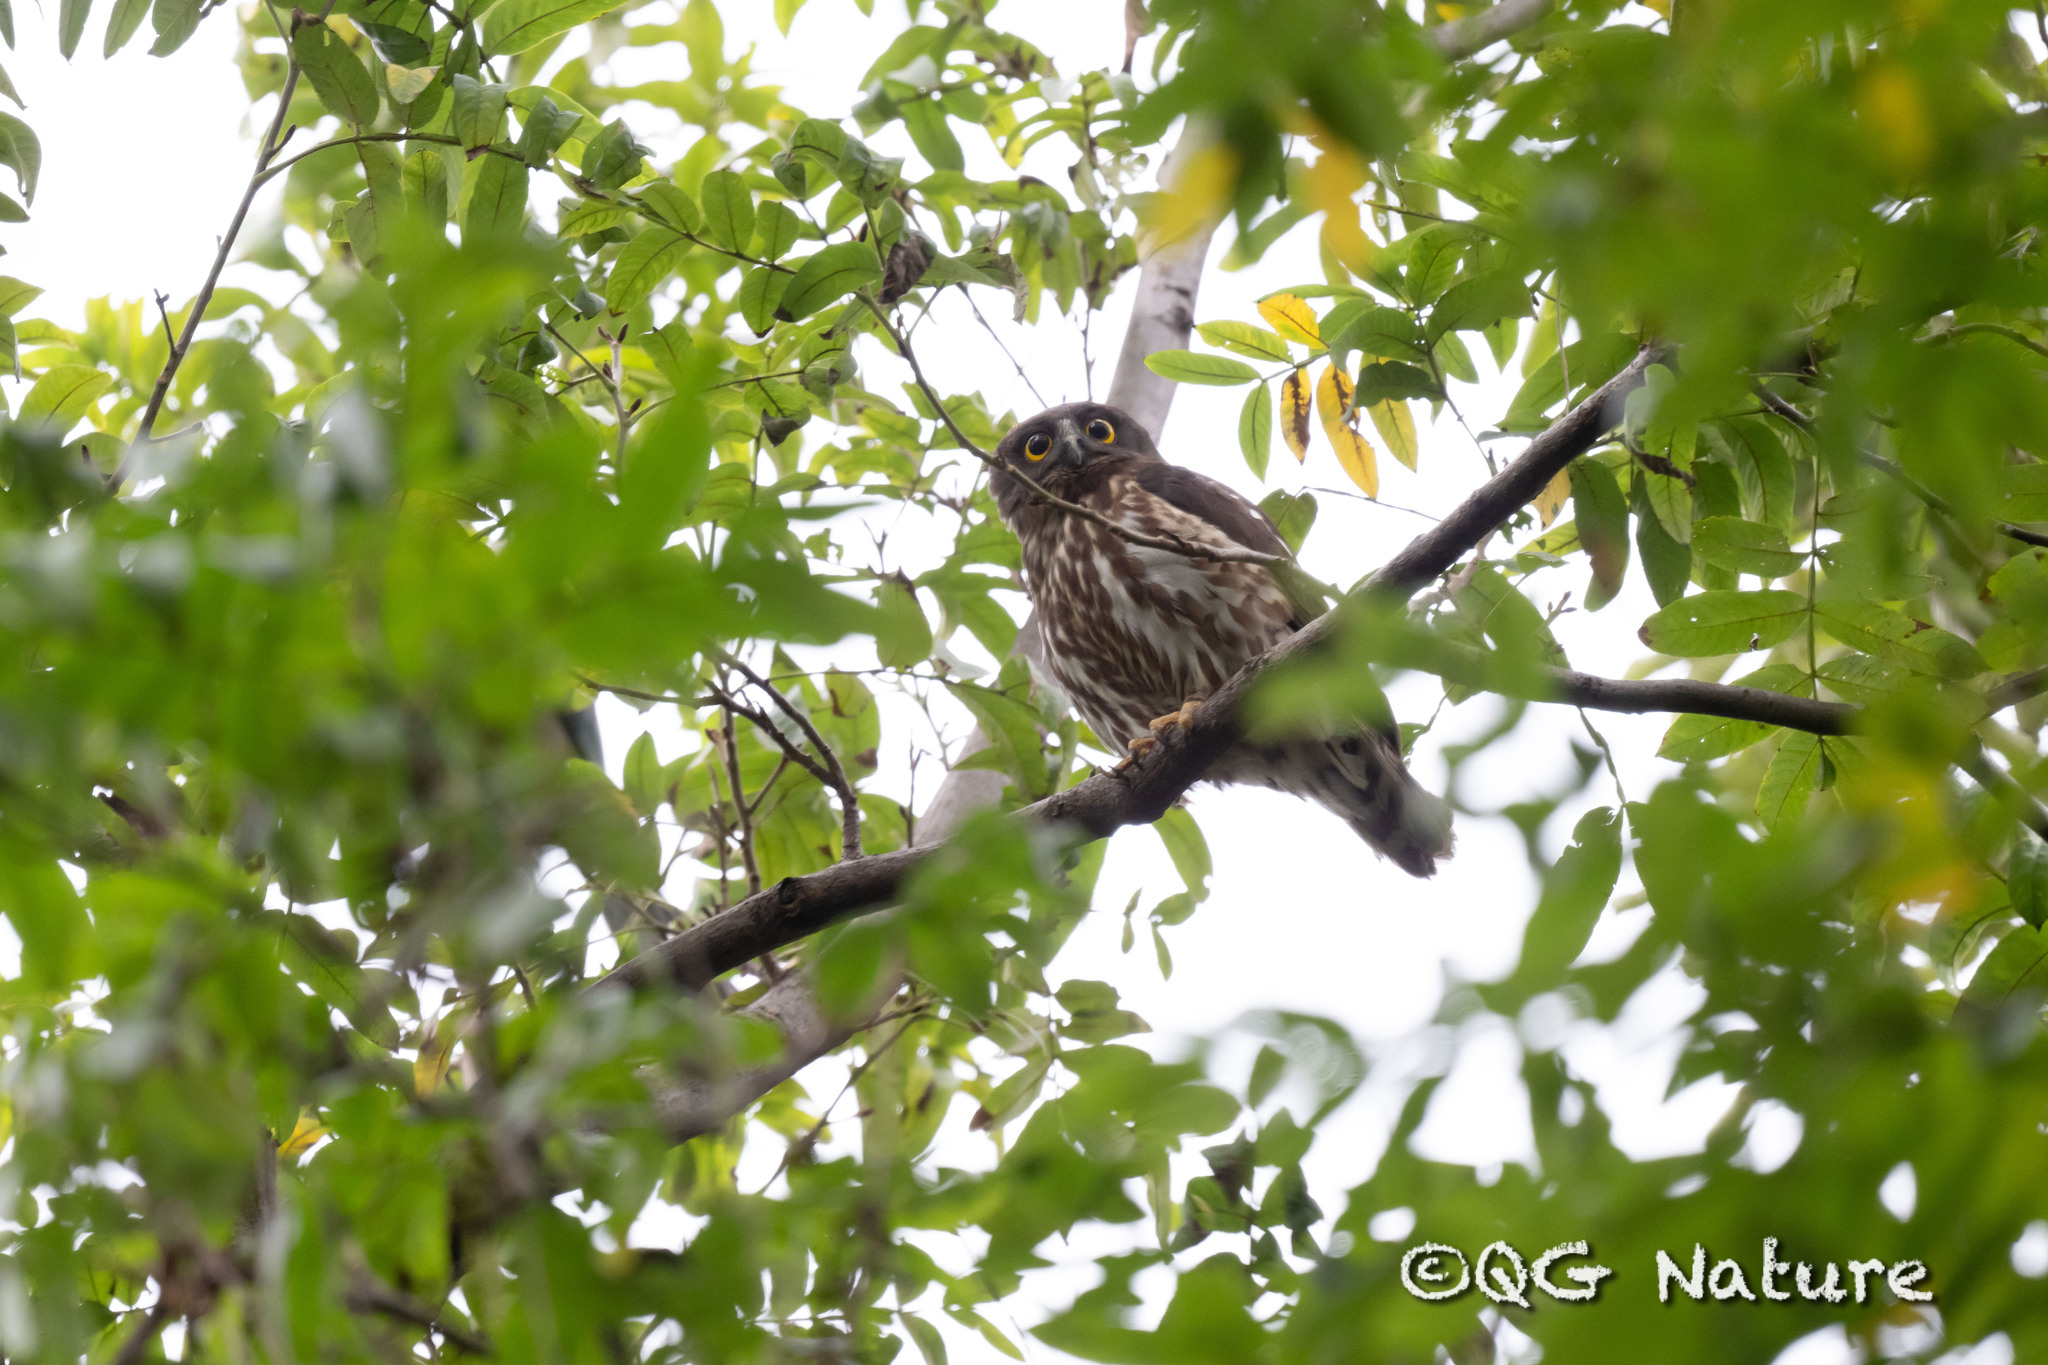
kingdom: Animalia
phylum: Chordata
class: Aves
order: Strigiformes
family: Strigidae
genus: Ninox
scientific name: Ninox japonica
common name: Northern boobook
